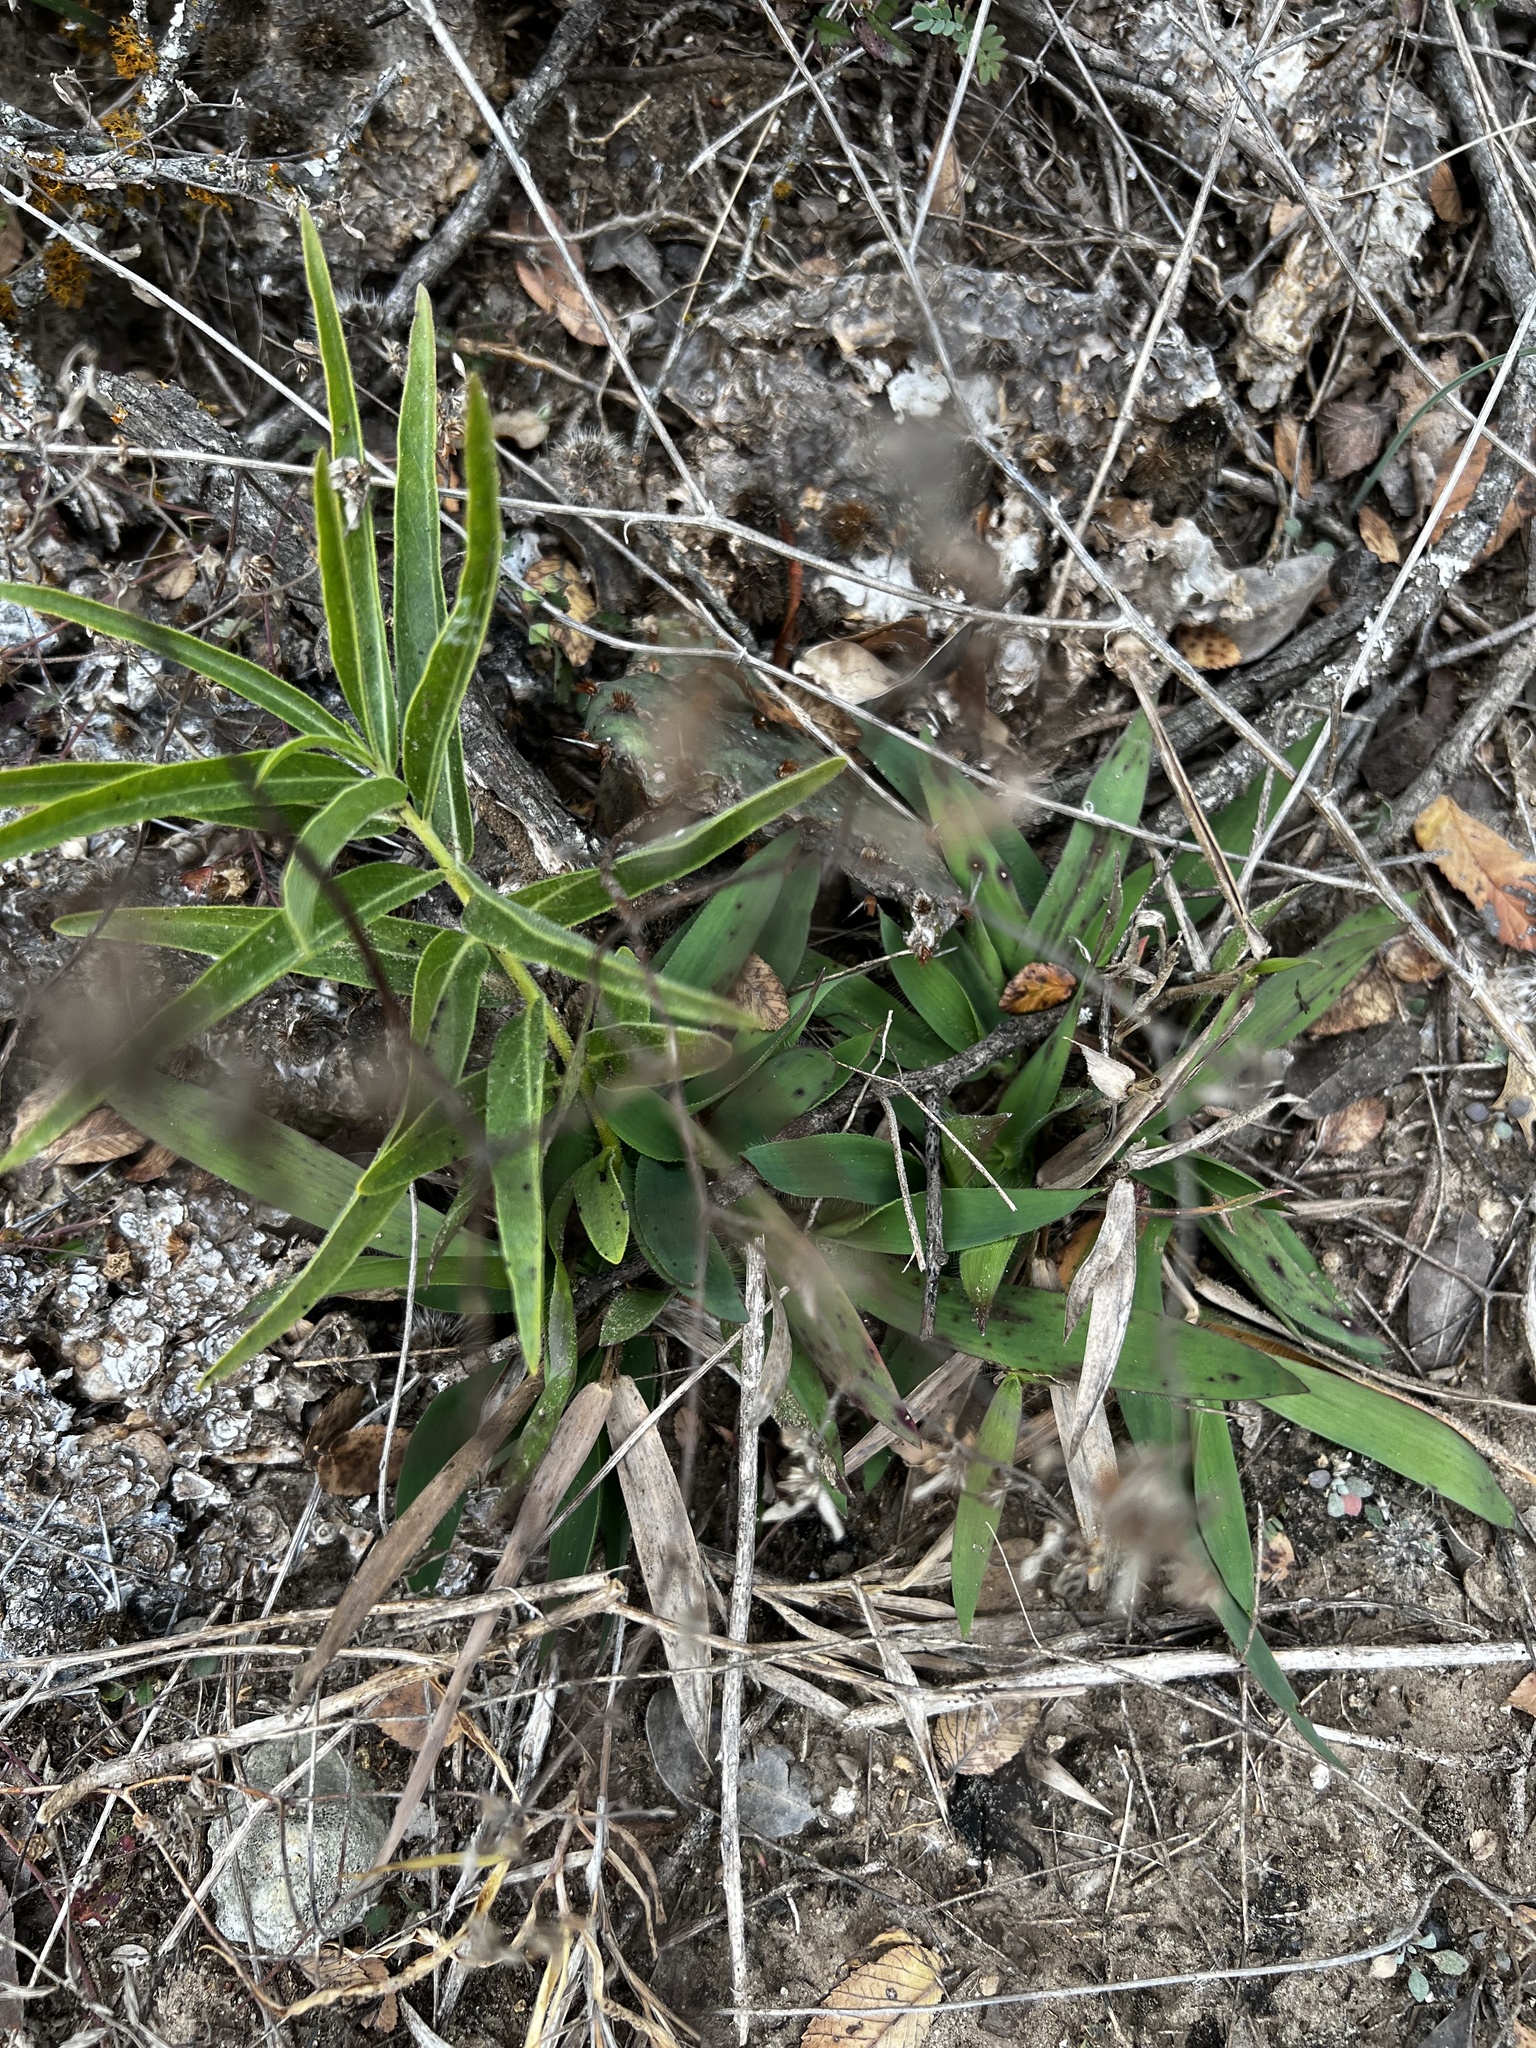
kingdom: Plantae
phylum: Tracheophyta
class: Magnoliopsida
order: Gentianales
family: Apocynaceae
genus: Asclepias
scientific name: Asclepias asperula
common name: Antelope horns
